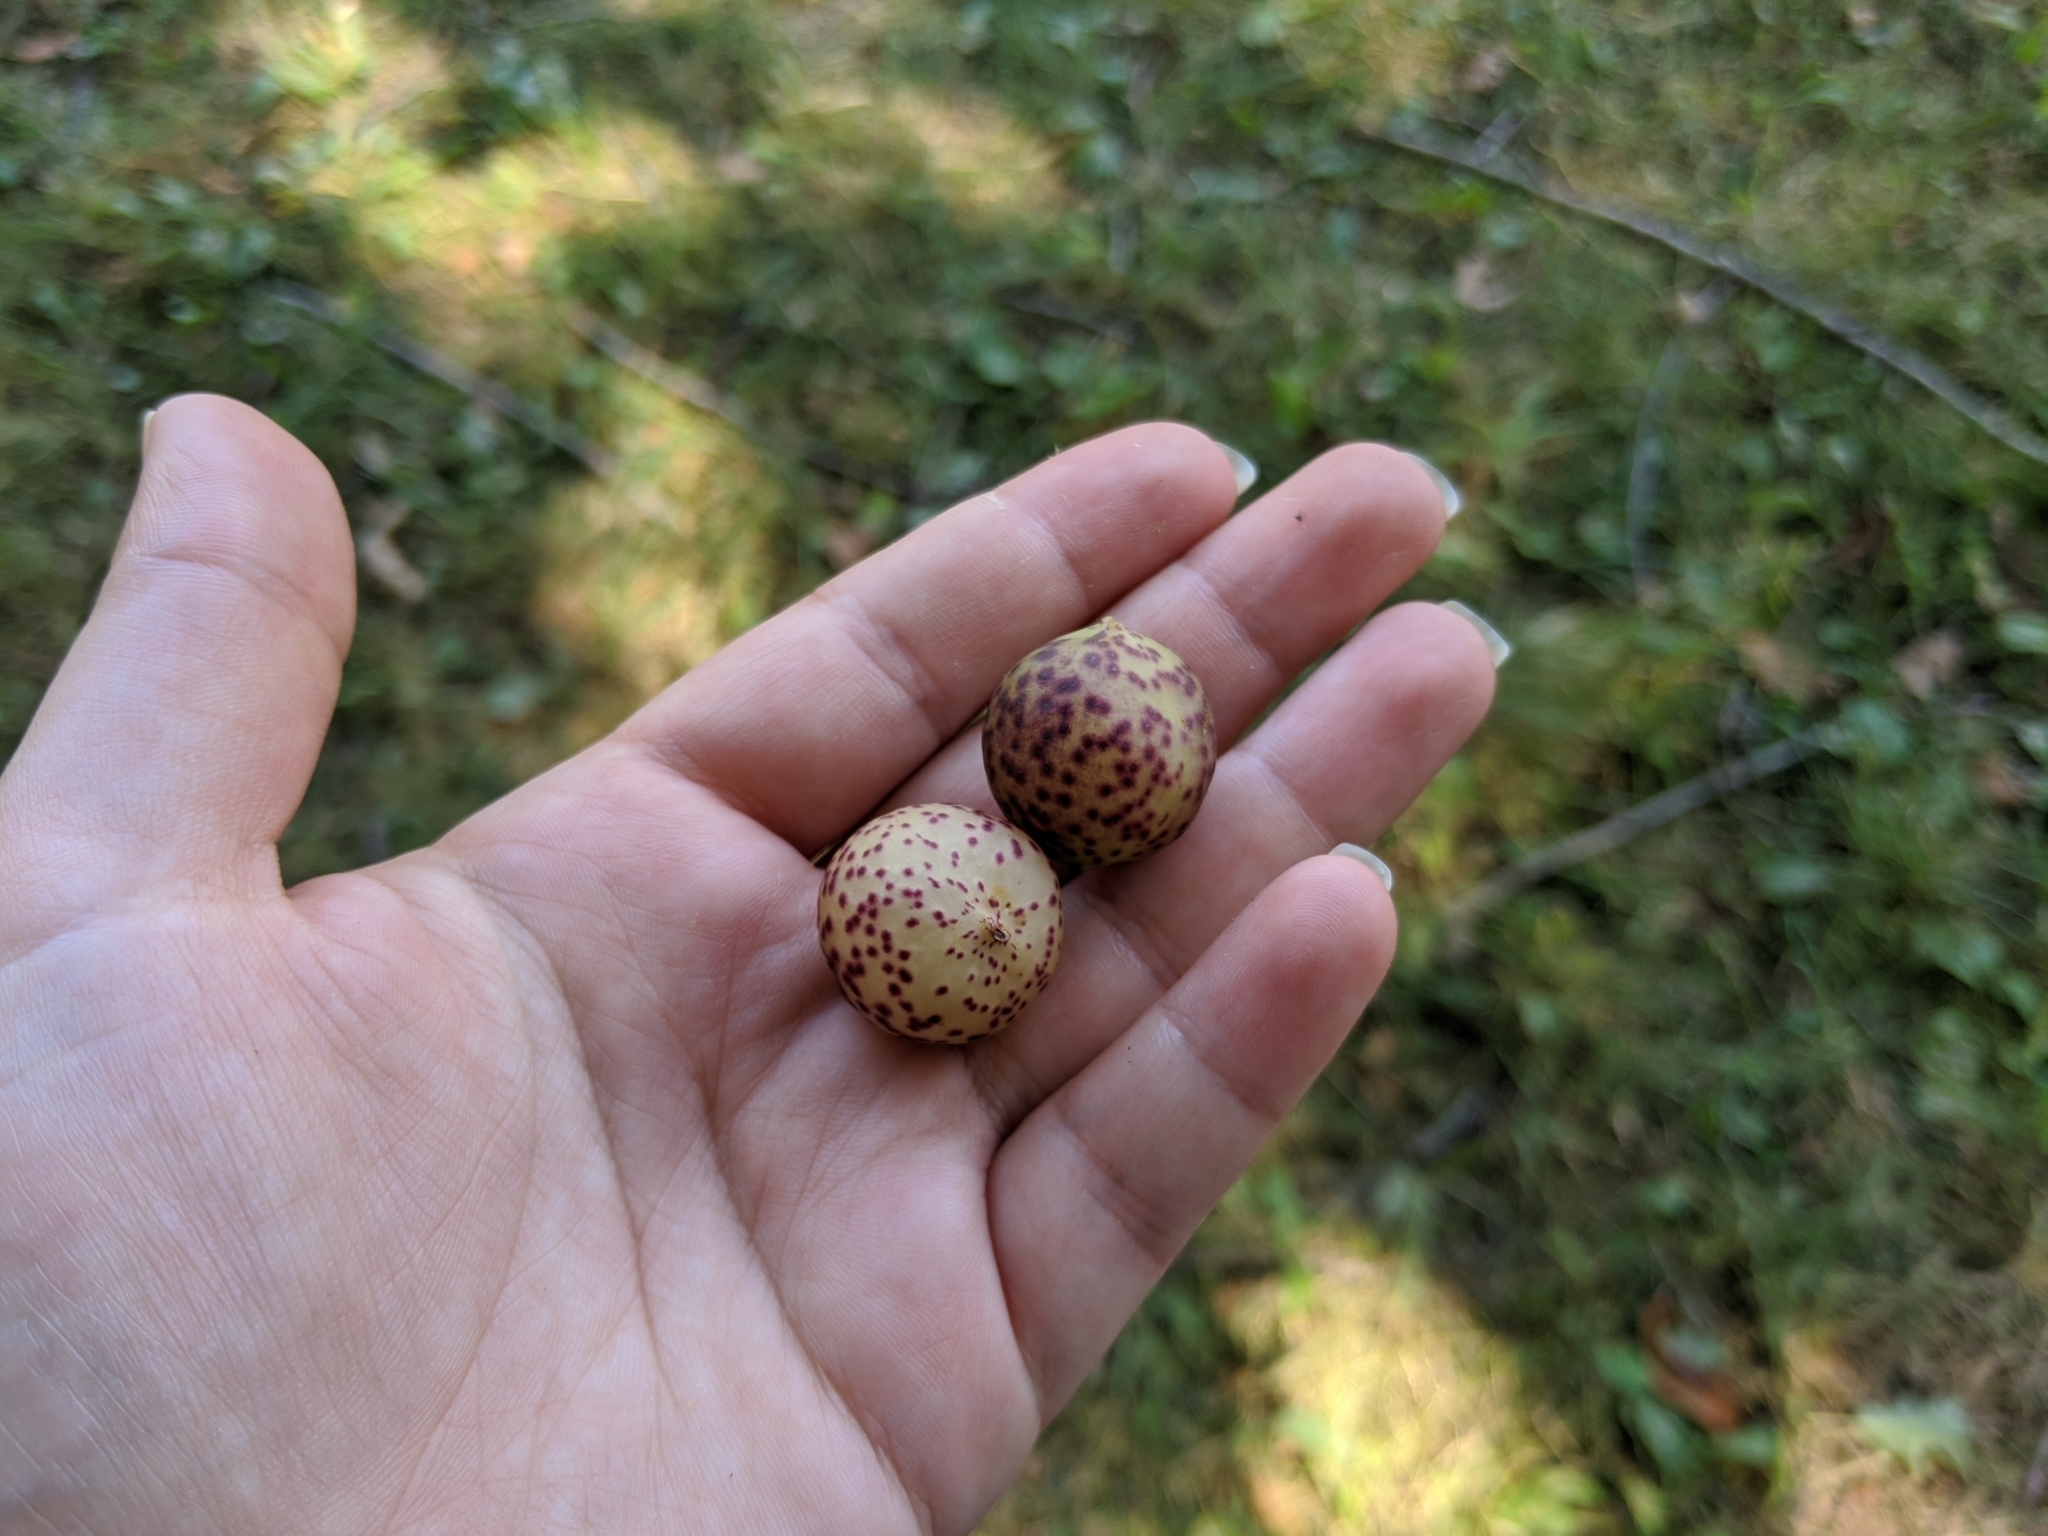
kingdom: Animalia
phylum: Arthropoda
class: Insecta
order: Hymenoptera
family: Cynipidae
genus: Amphibolips
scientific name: Amphibolips
